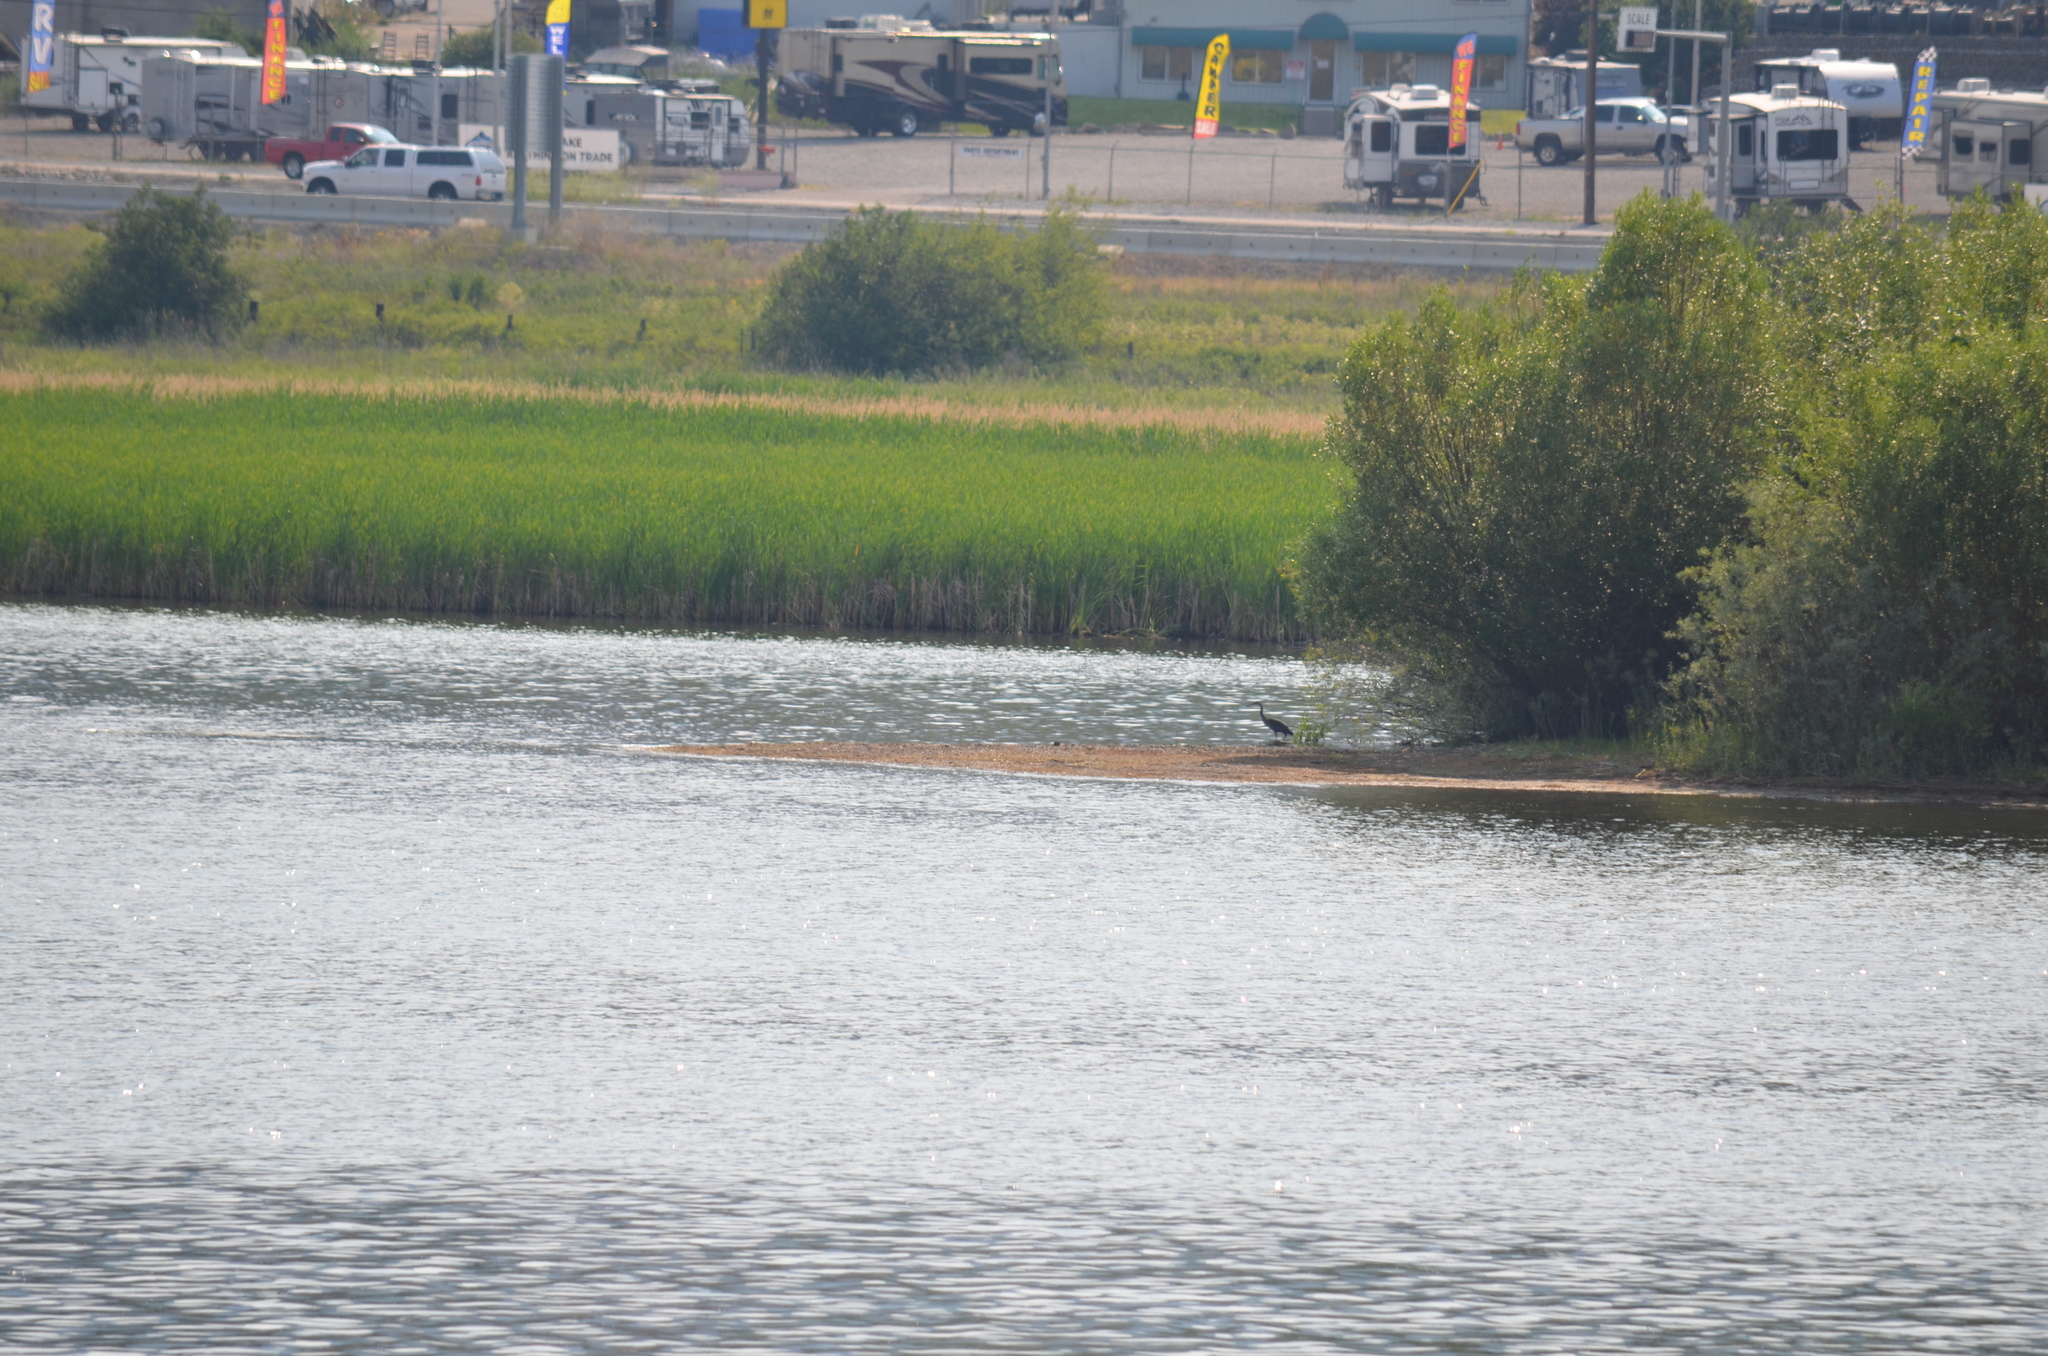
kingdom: Animalia
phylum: Chordata
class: Aves
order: Pelecaniformes
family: Ardeidae
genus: Ardea
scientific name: Ardea herodias
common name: Great blue heron
